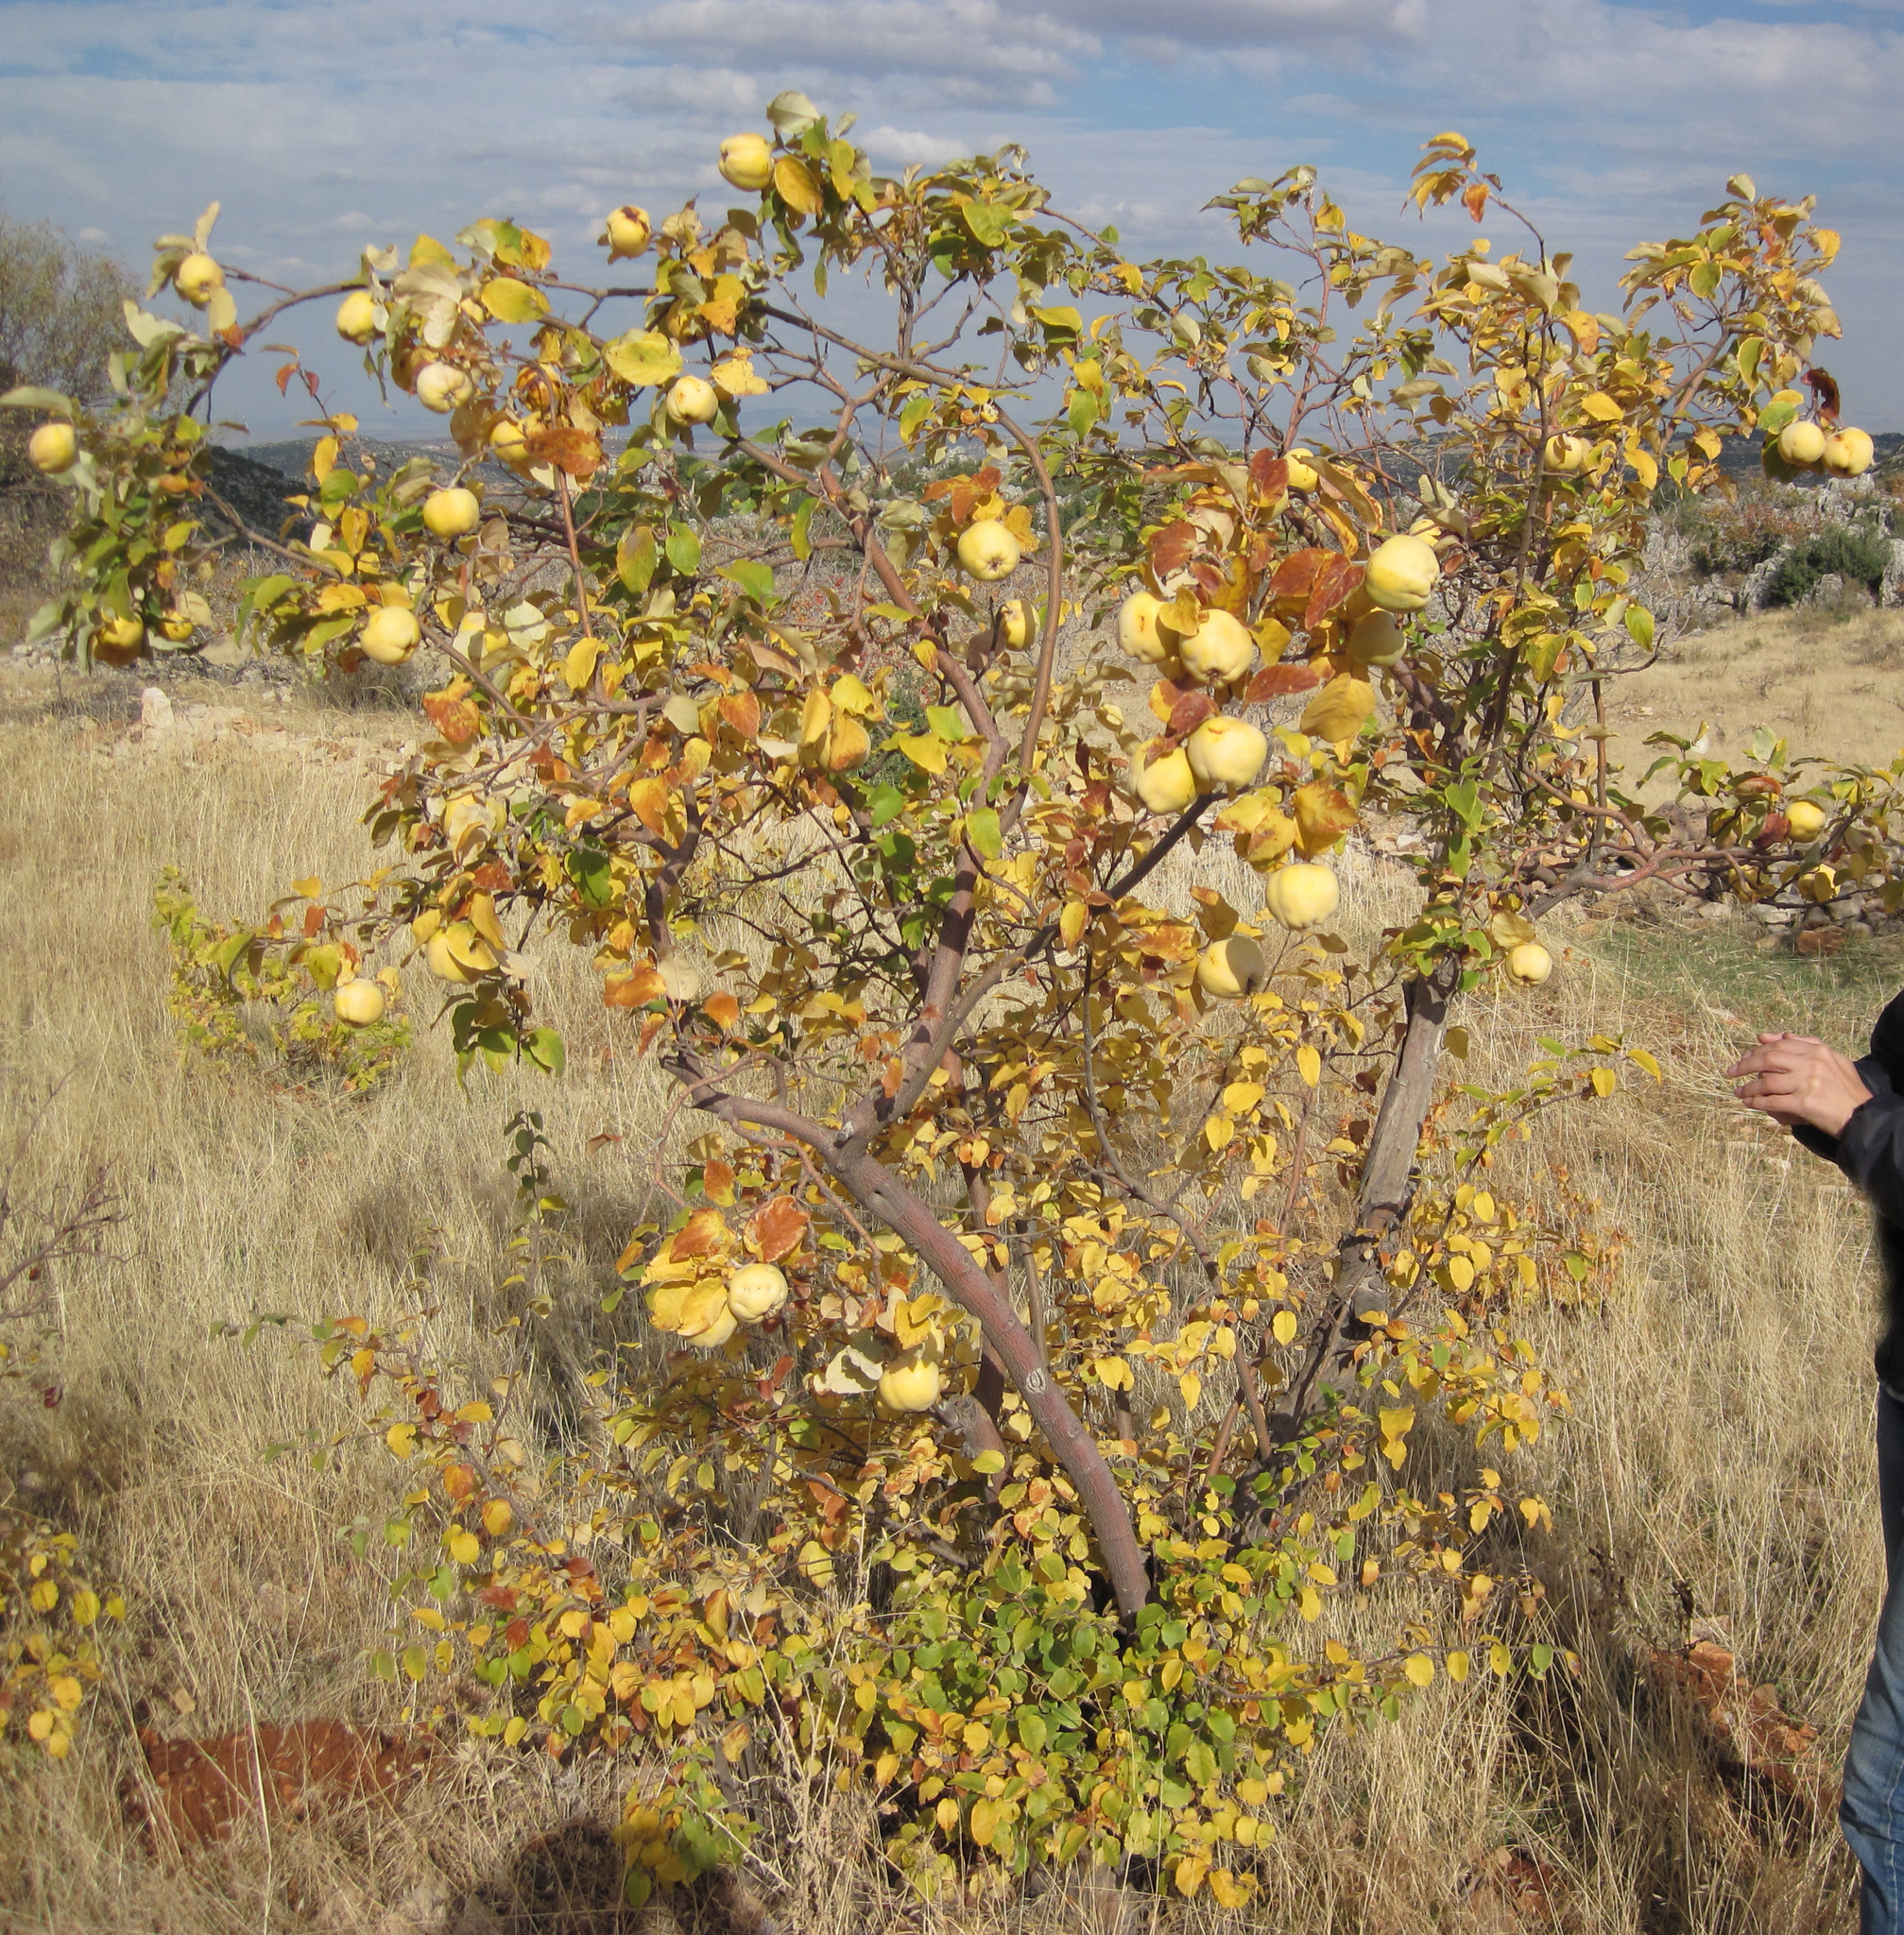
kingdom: Plantae
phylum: Tracheophyta
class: Magnoliopsida
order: Rosales
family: Rosaceae
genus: Cydonia
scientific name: Cydonia oblonga
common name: Quince
